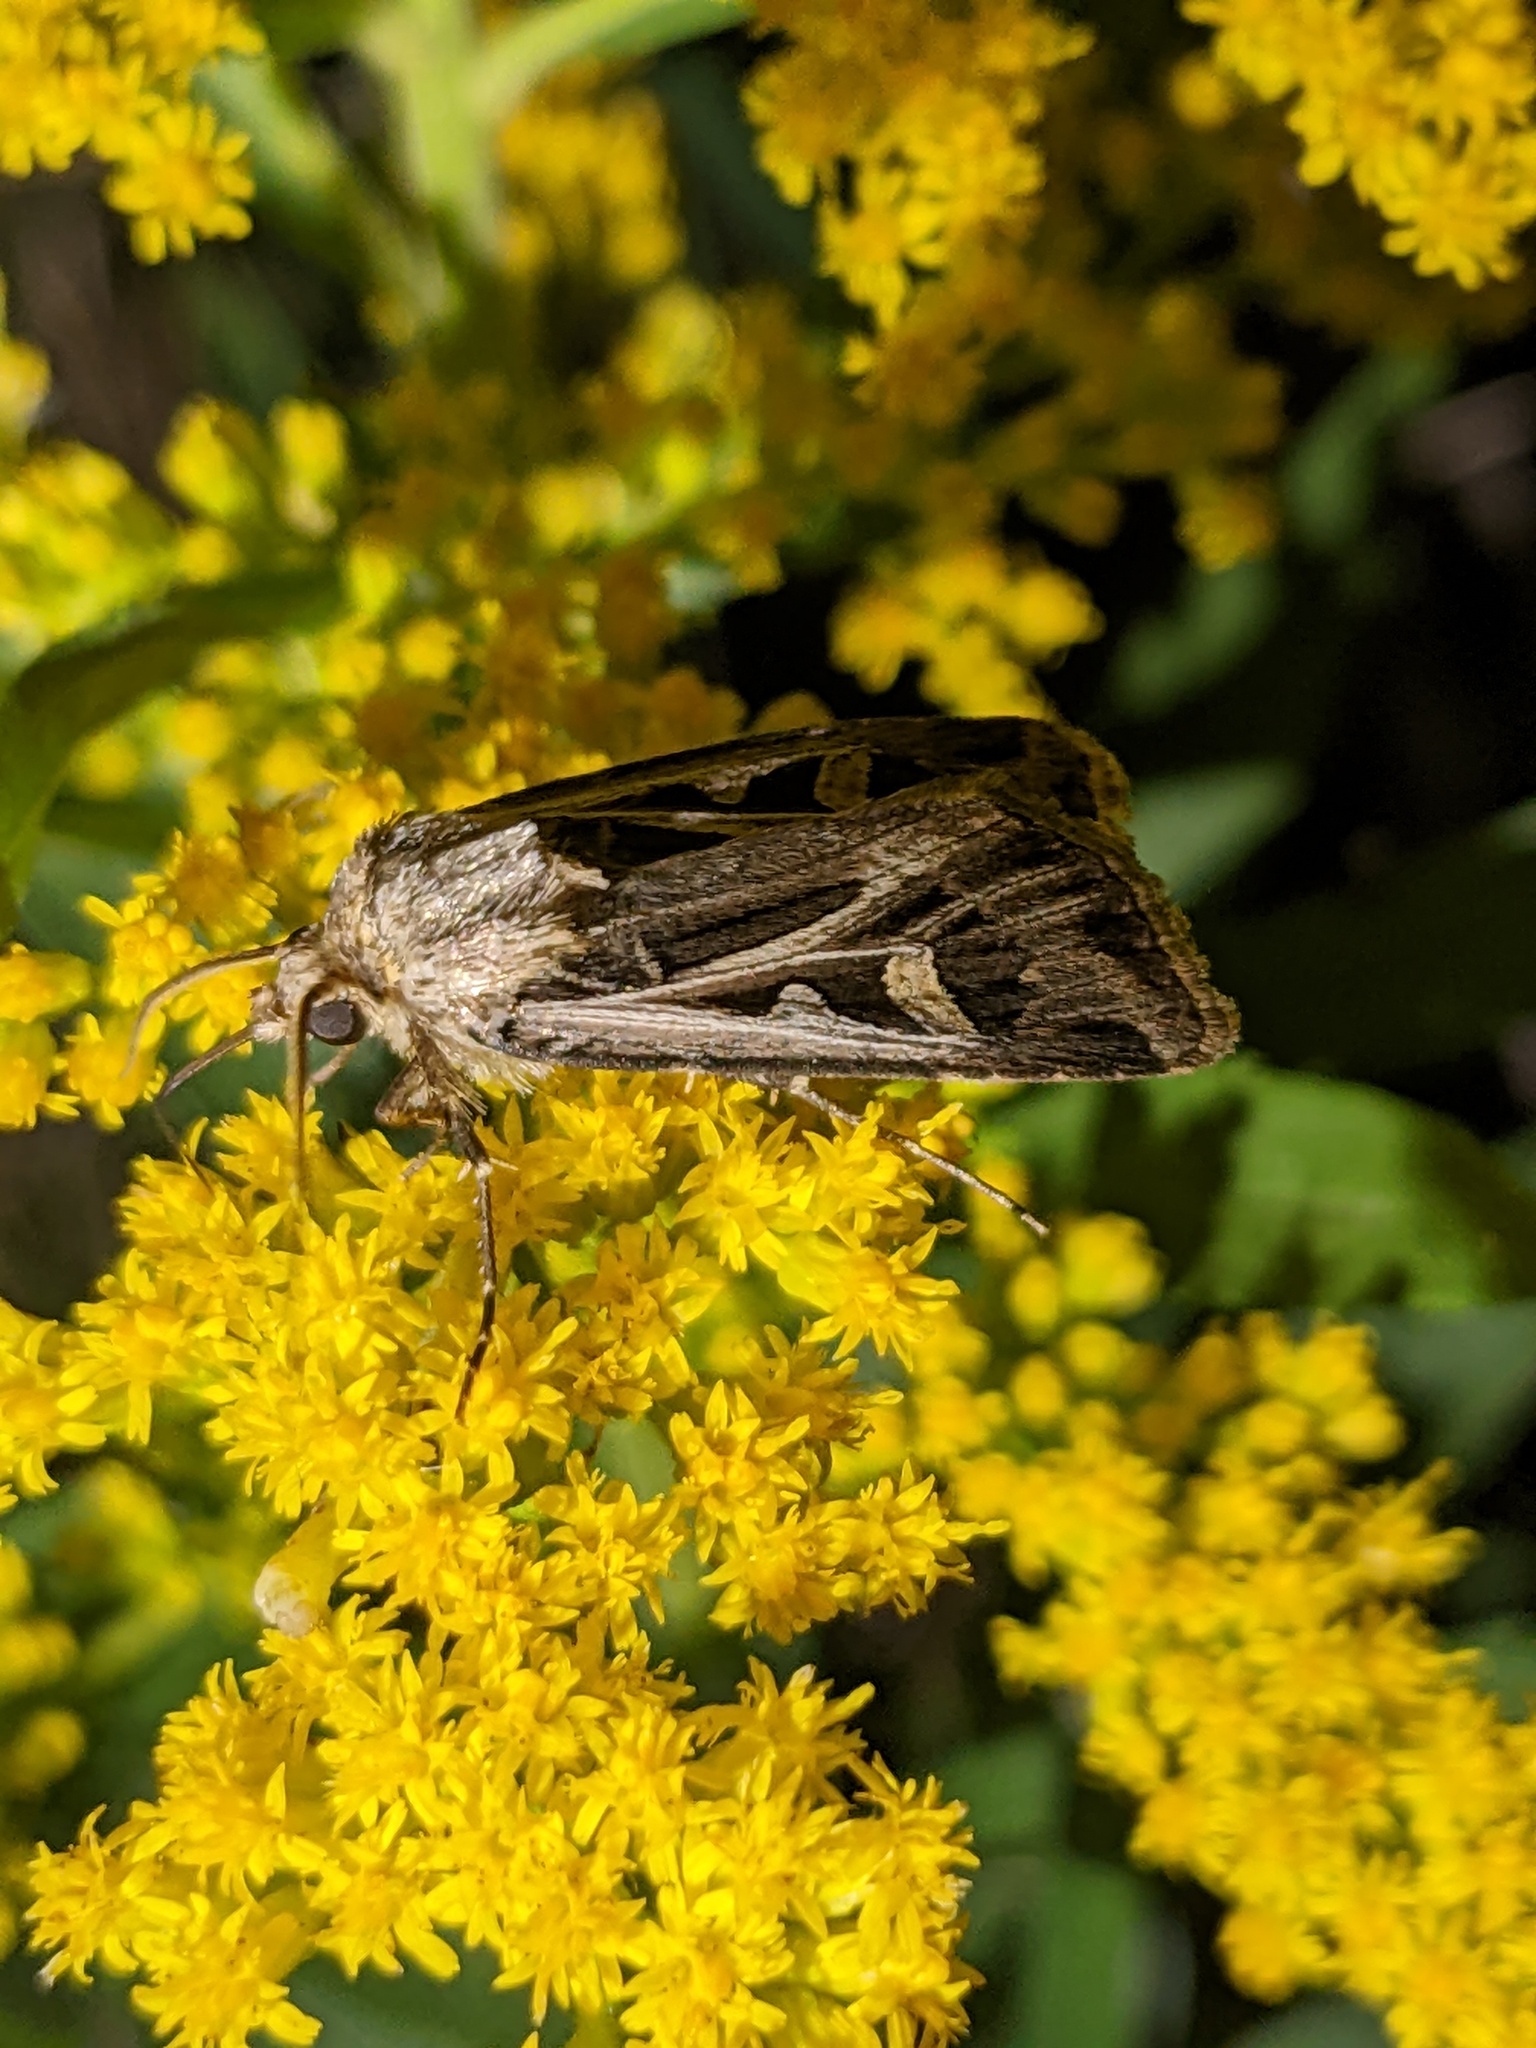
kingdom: Animalia
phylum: Arthropoda
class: Insecta
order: Lepidoptera
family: Noctuidae
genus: Feltia
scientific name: Feltia jaculifera
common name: Dingy cutworm moth
